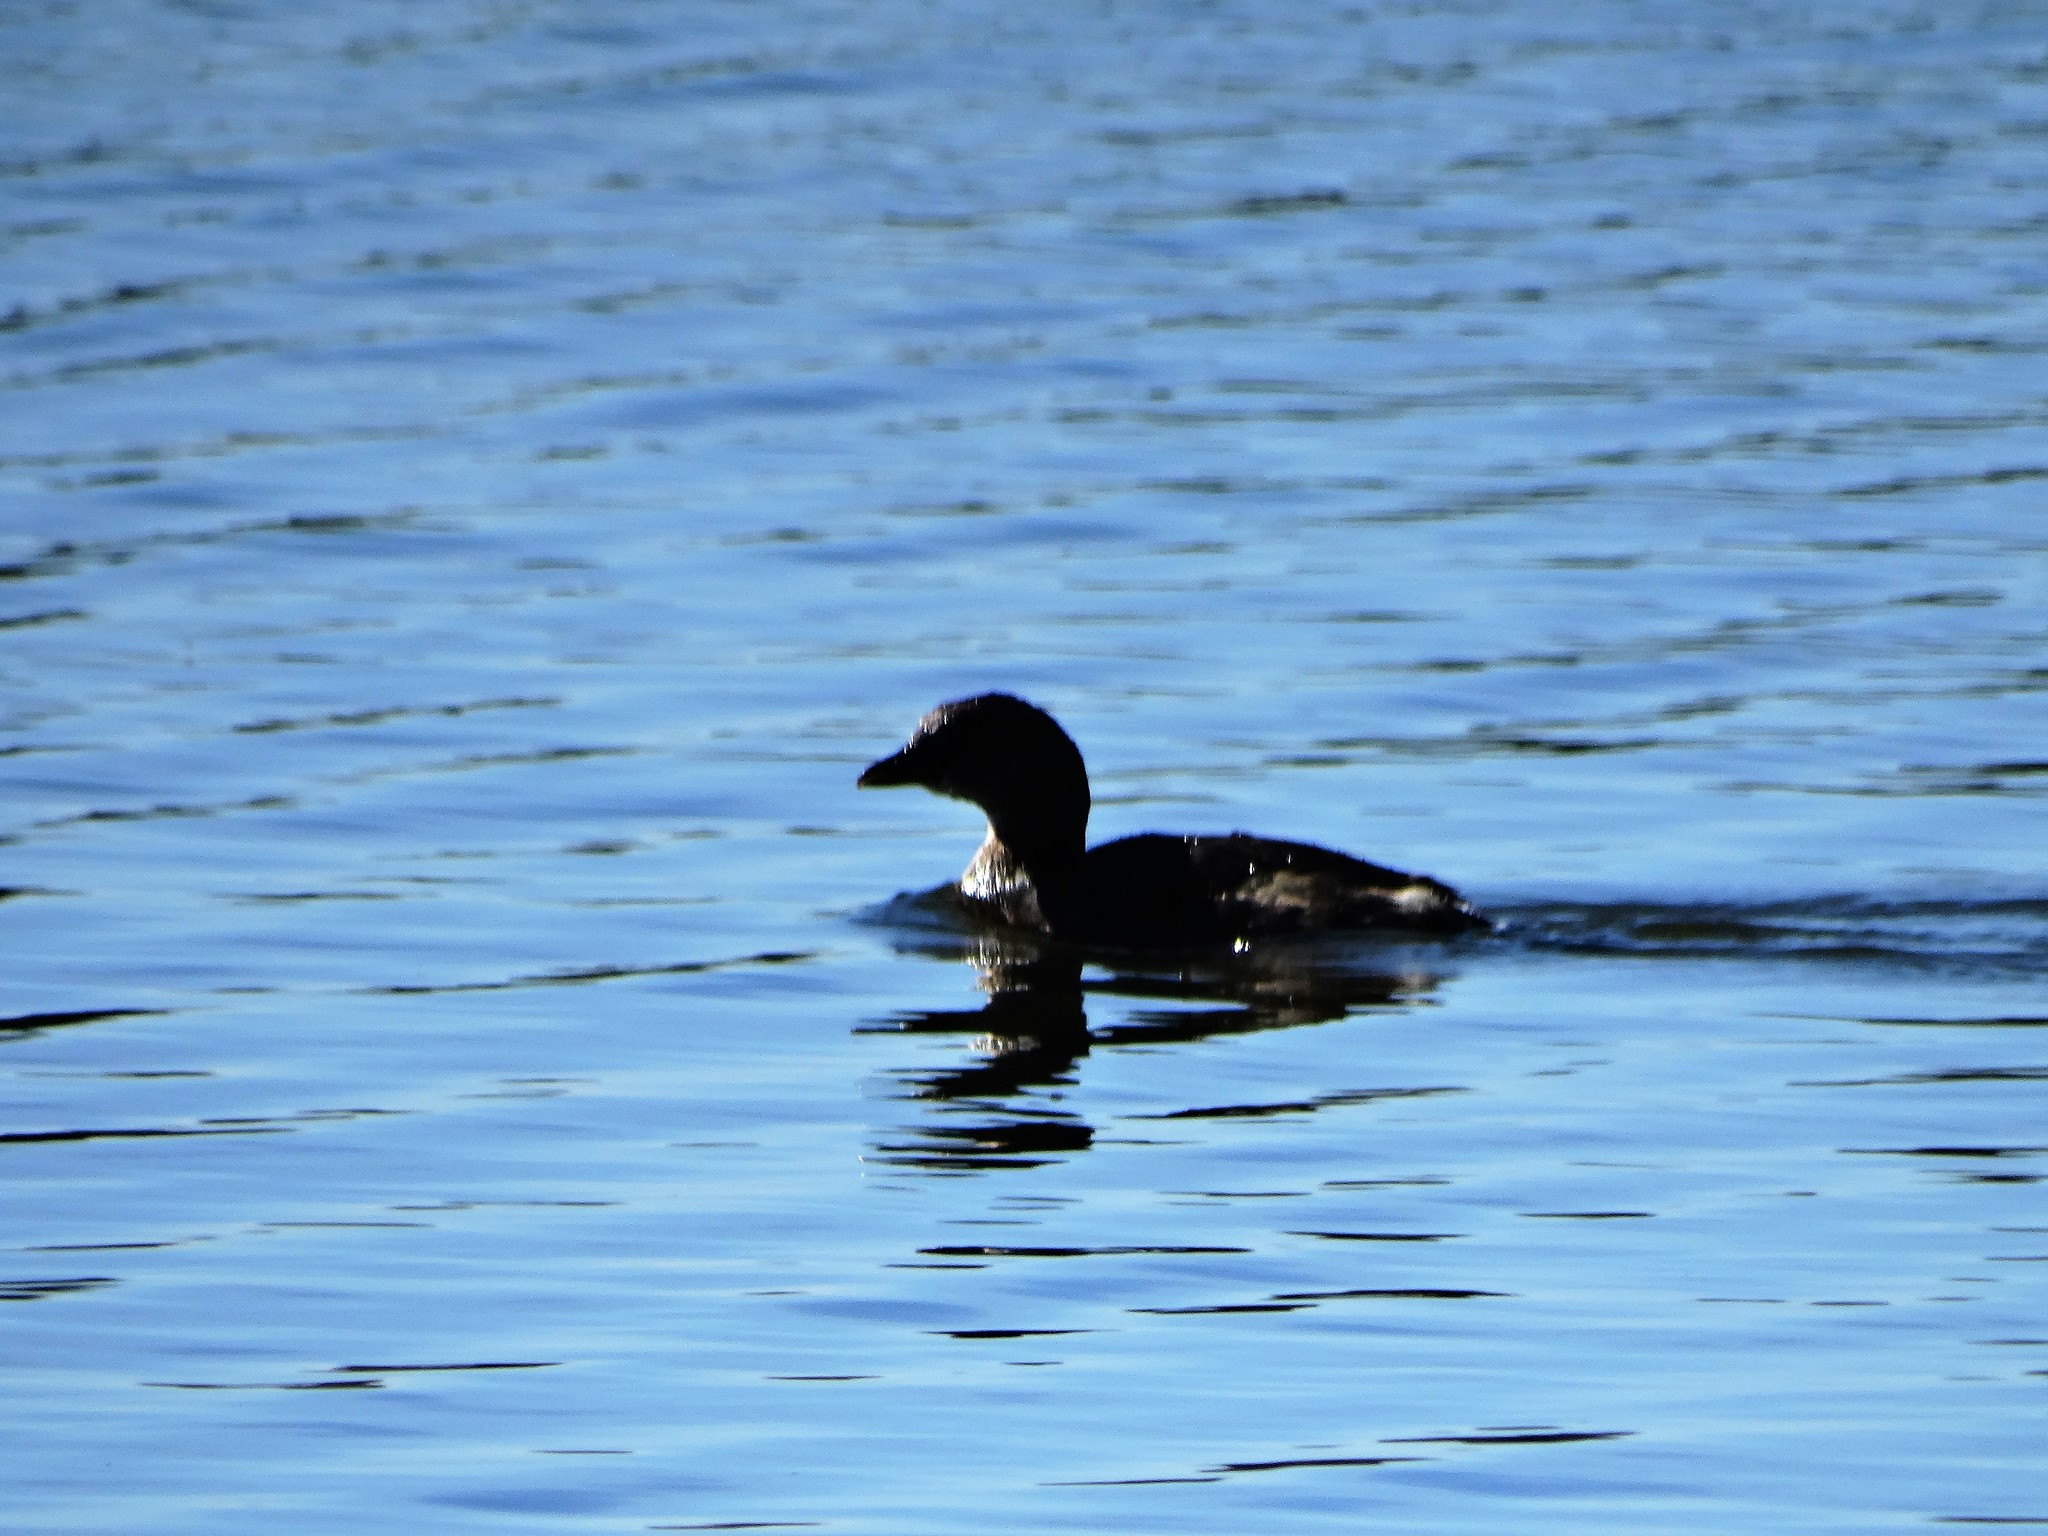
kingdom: Animalia
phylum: Chordata
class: Aves
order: Podicipediformes
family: Podicipedidae
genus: Podilymbus
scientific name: Podilymbus podiceps
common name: Pied-billed grebe
